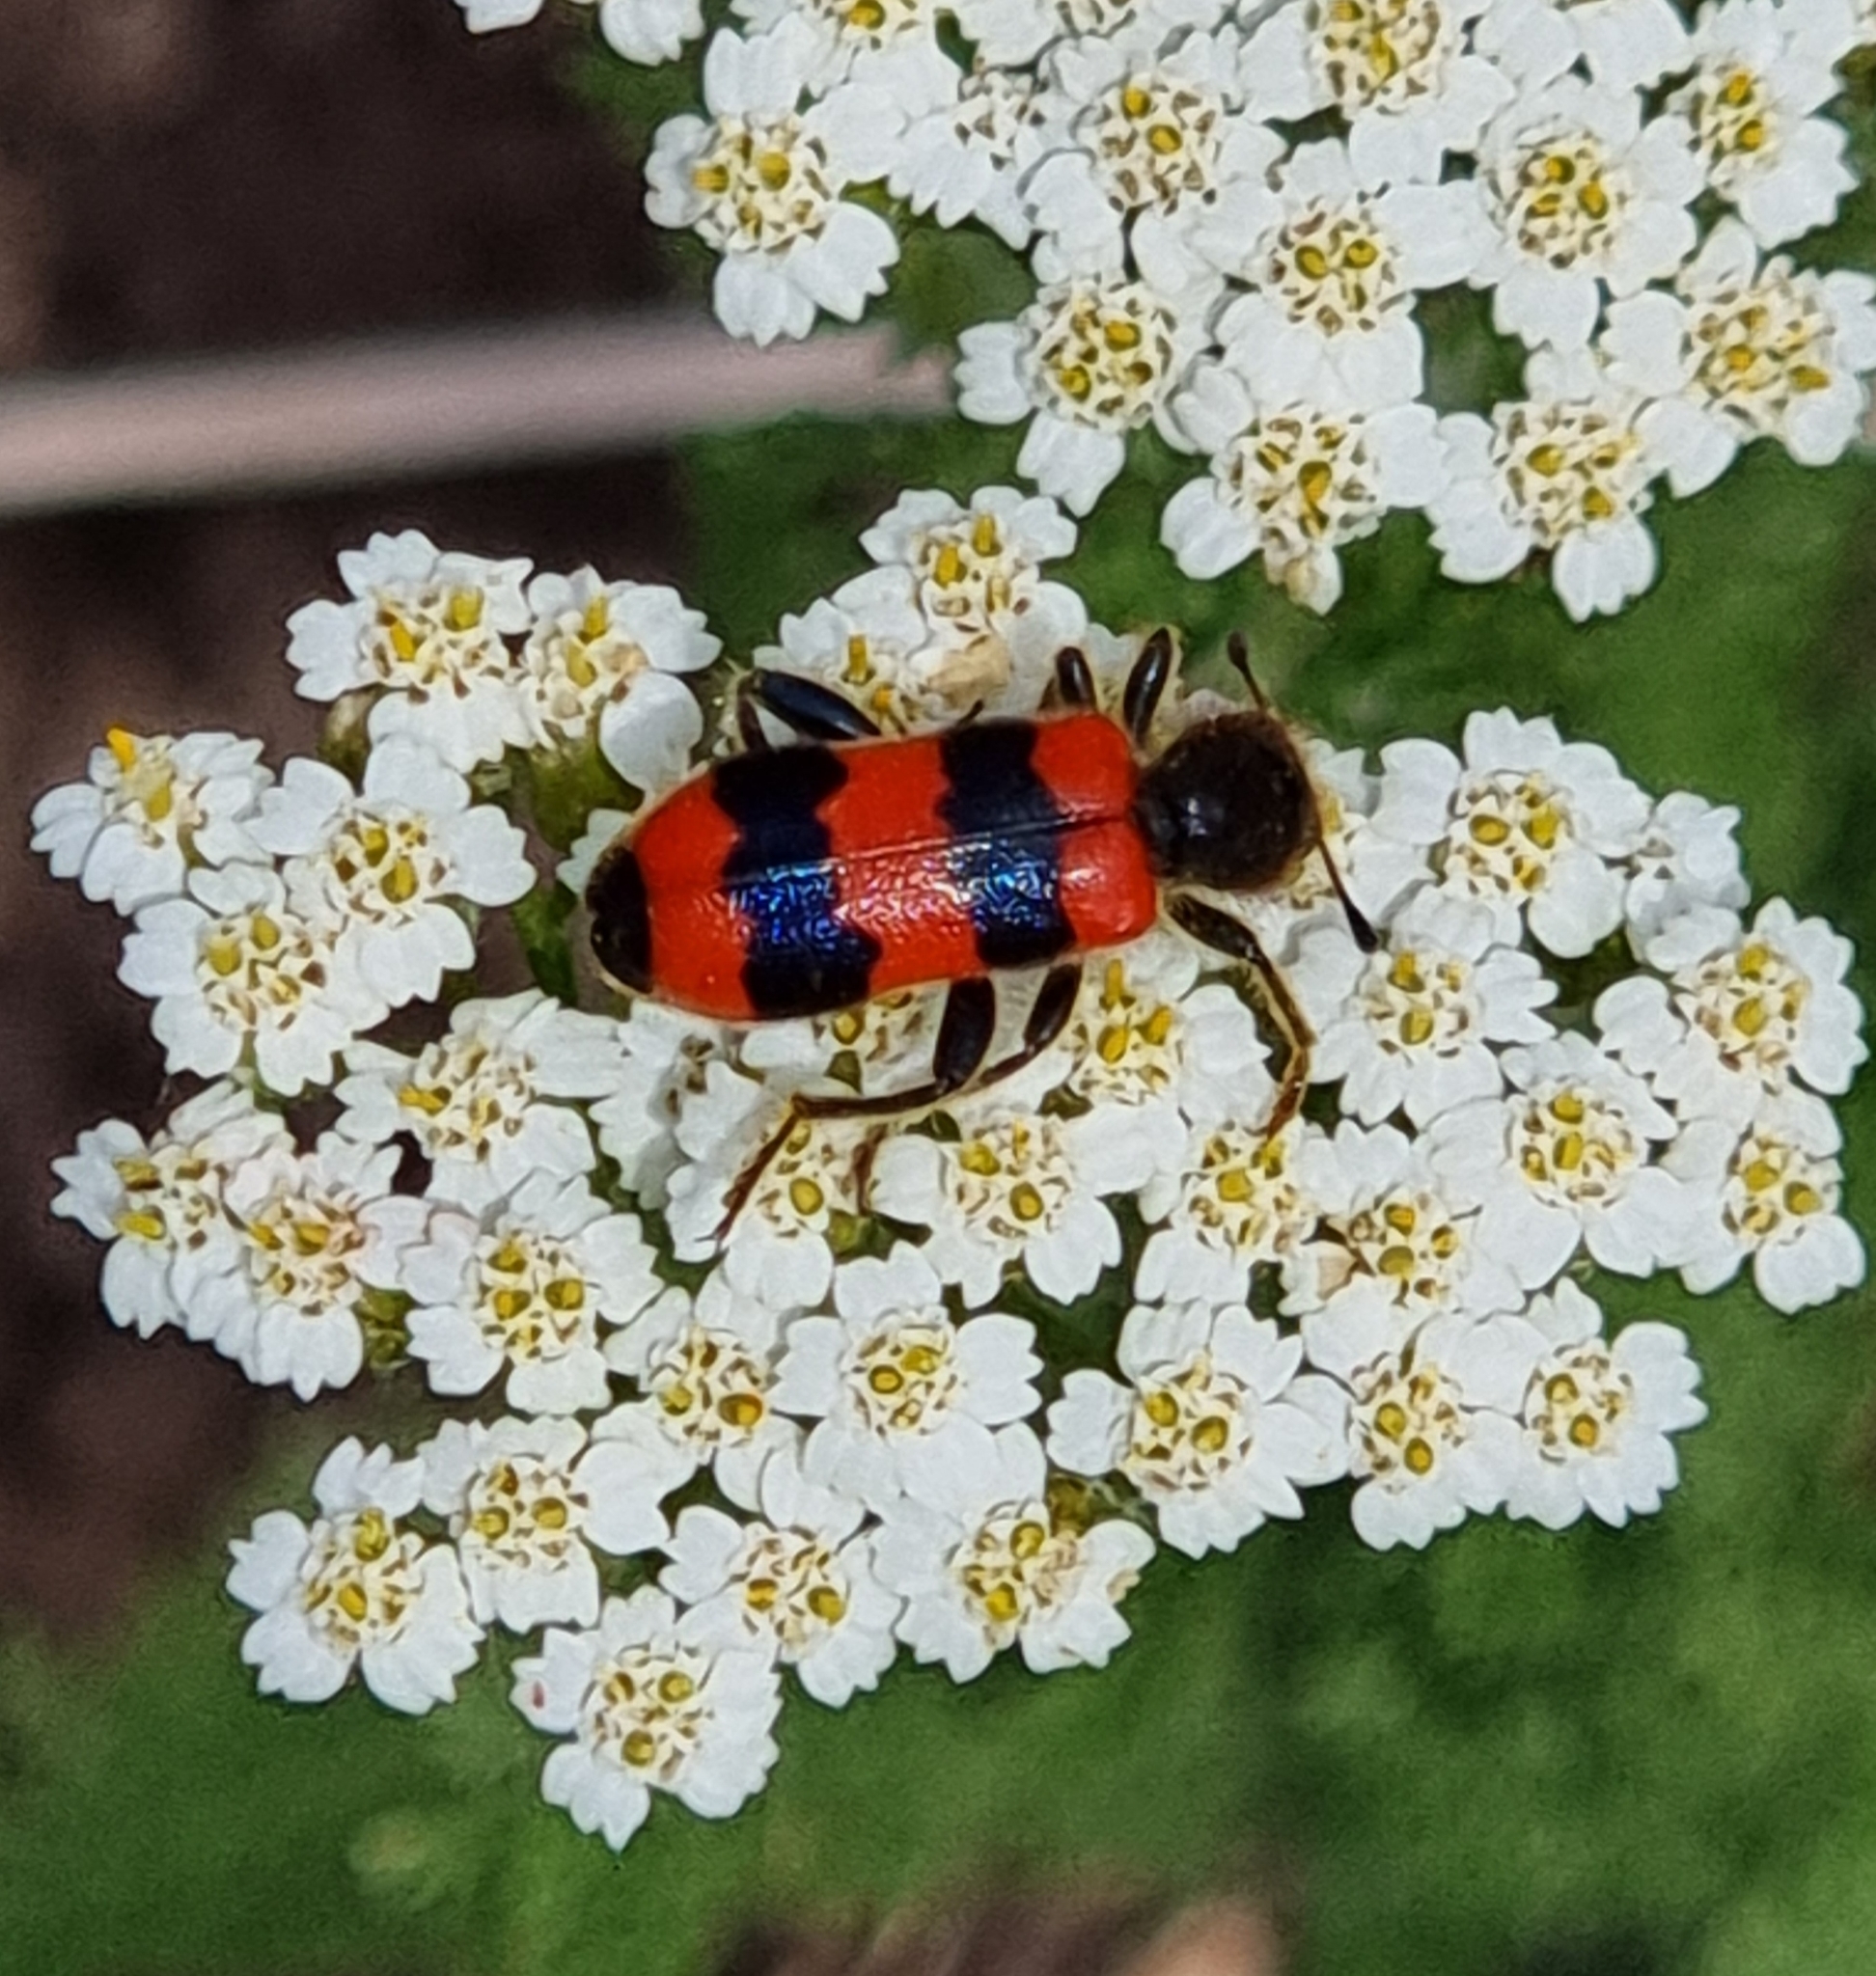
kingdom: Animalia
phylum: Arthropoda
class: Insecta
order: Coleoptera
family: Cleridae
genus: Trichodes
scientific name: Trichodes apiarius
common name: Bee-eating beetle
